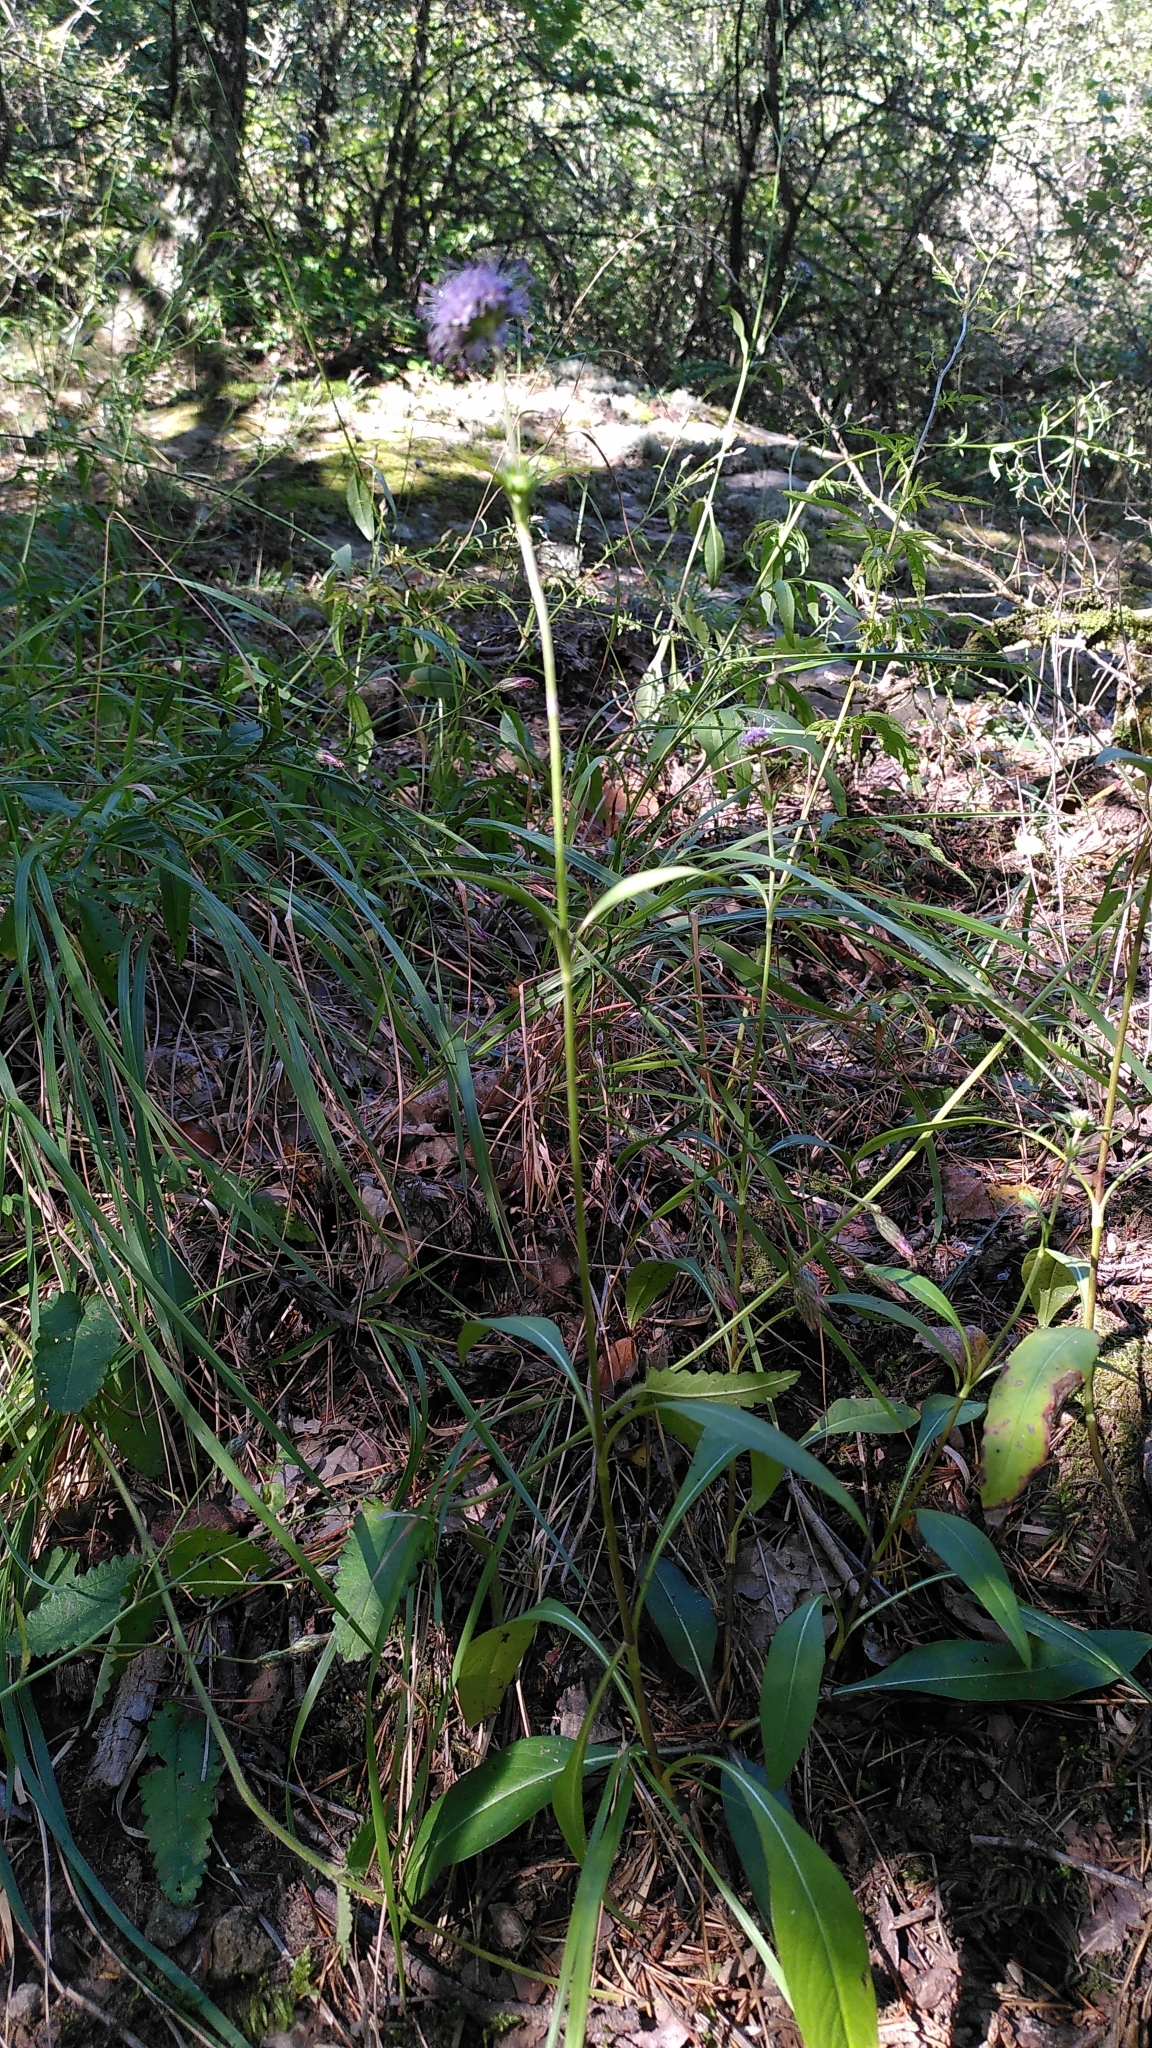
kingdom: Plantae
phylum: Tracheophyta
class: Magnoliopsida
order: Dipsacales
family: Caprifoliaceae
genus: Succisa
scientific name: Succisa pratensis
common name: Devil's-bit
